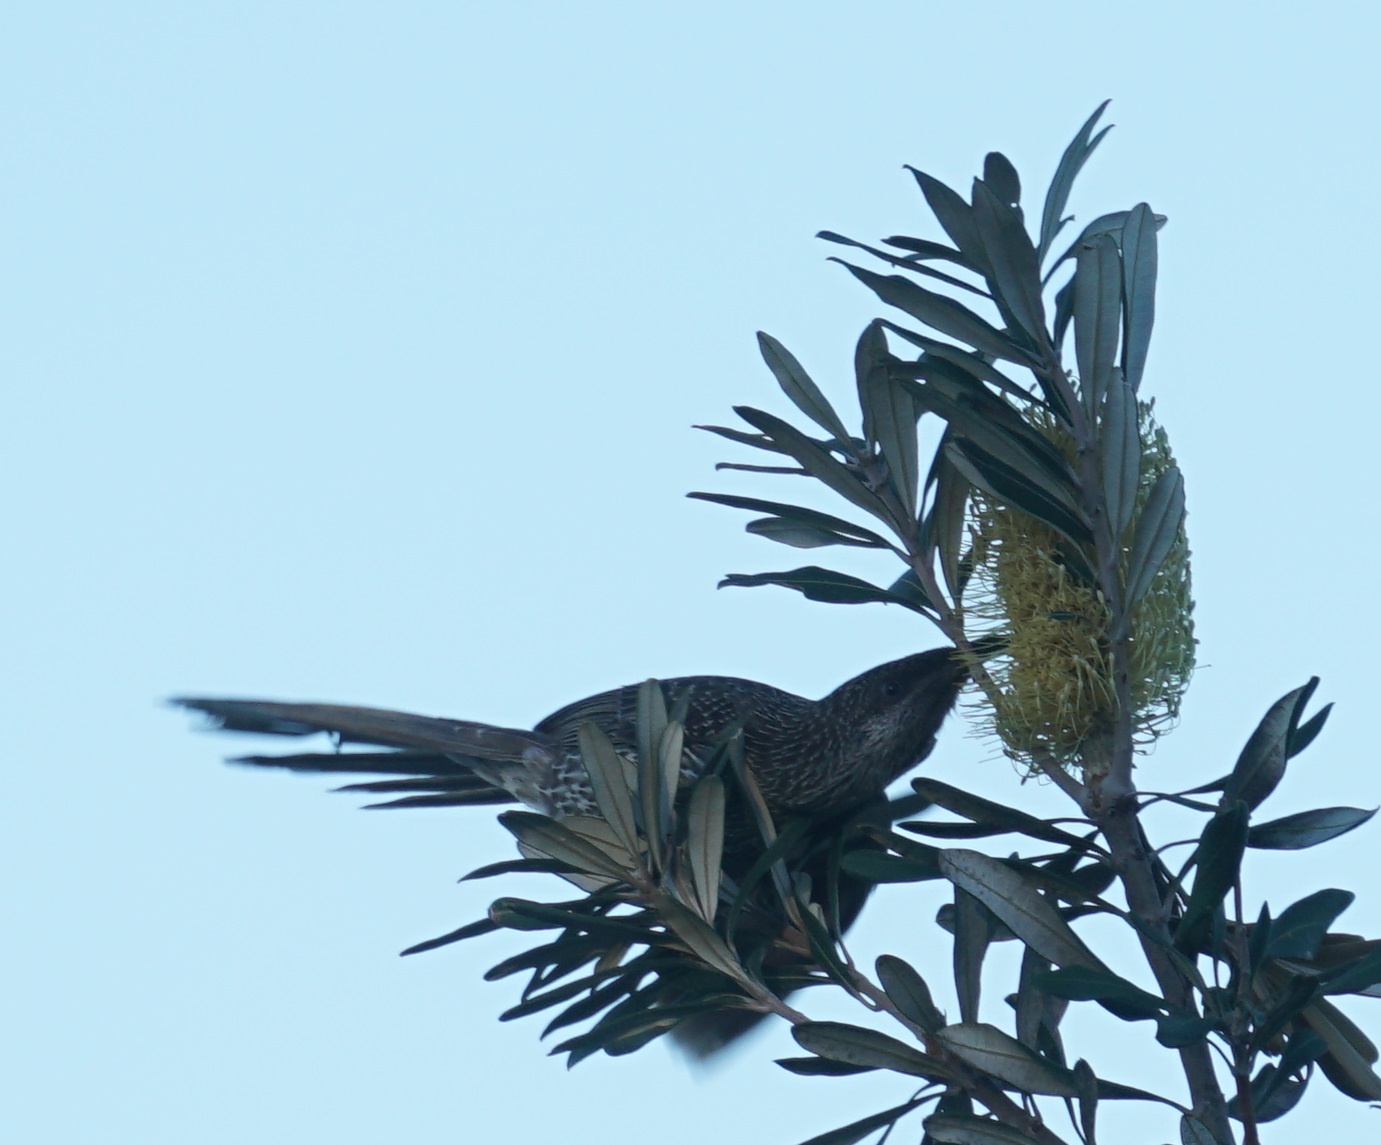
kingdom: Animalia
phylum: Chordata
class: Aves
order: Passeriformes
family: Meliphagidae
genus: Anthochaera
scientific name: Anthochaera chrysoptera
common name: Little wattlebird
